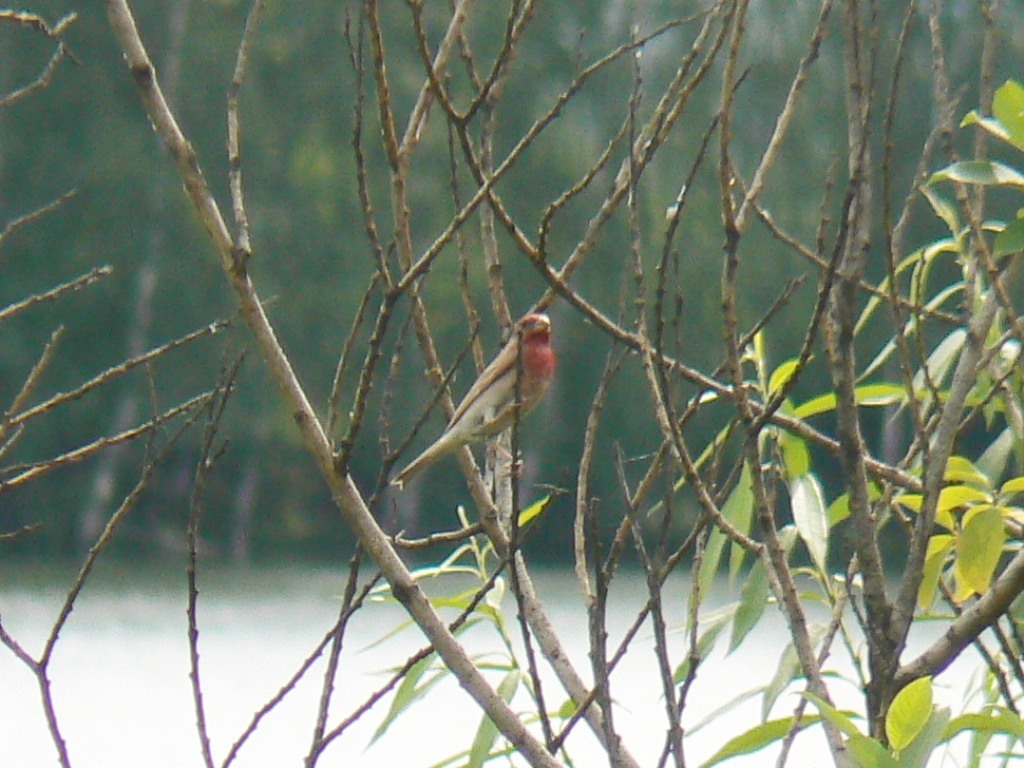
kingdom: Animalia
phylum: Chordata
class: Aves
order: Passeriformes
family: Fringillidae
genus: Carpodacus
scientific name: Carpodacus erythrinus
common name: Common rosefinch
